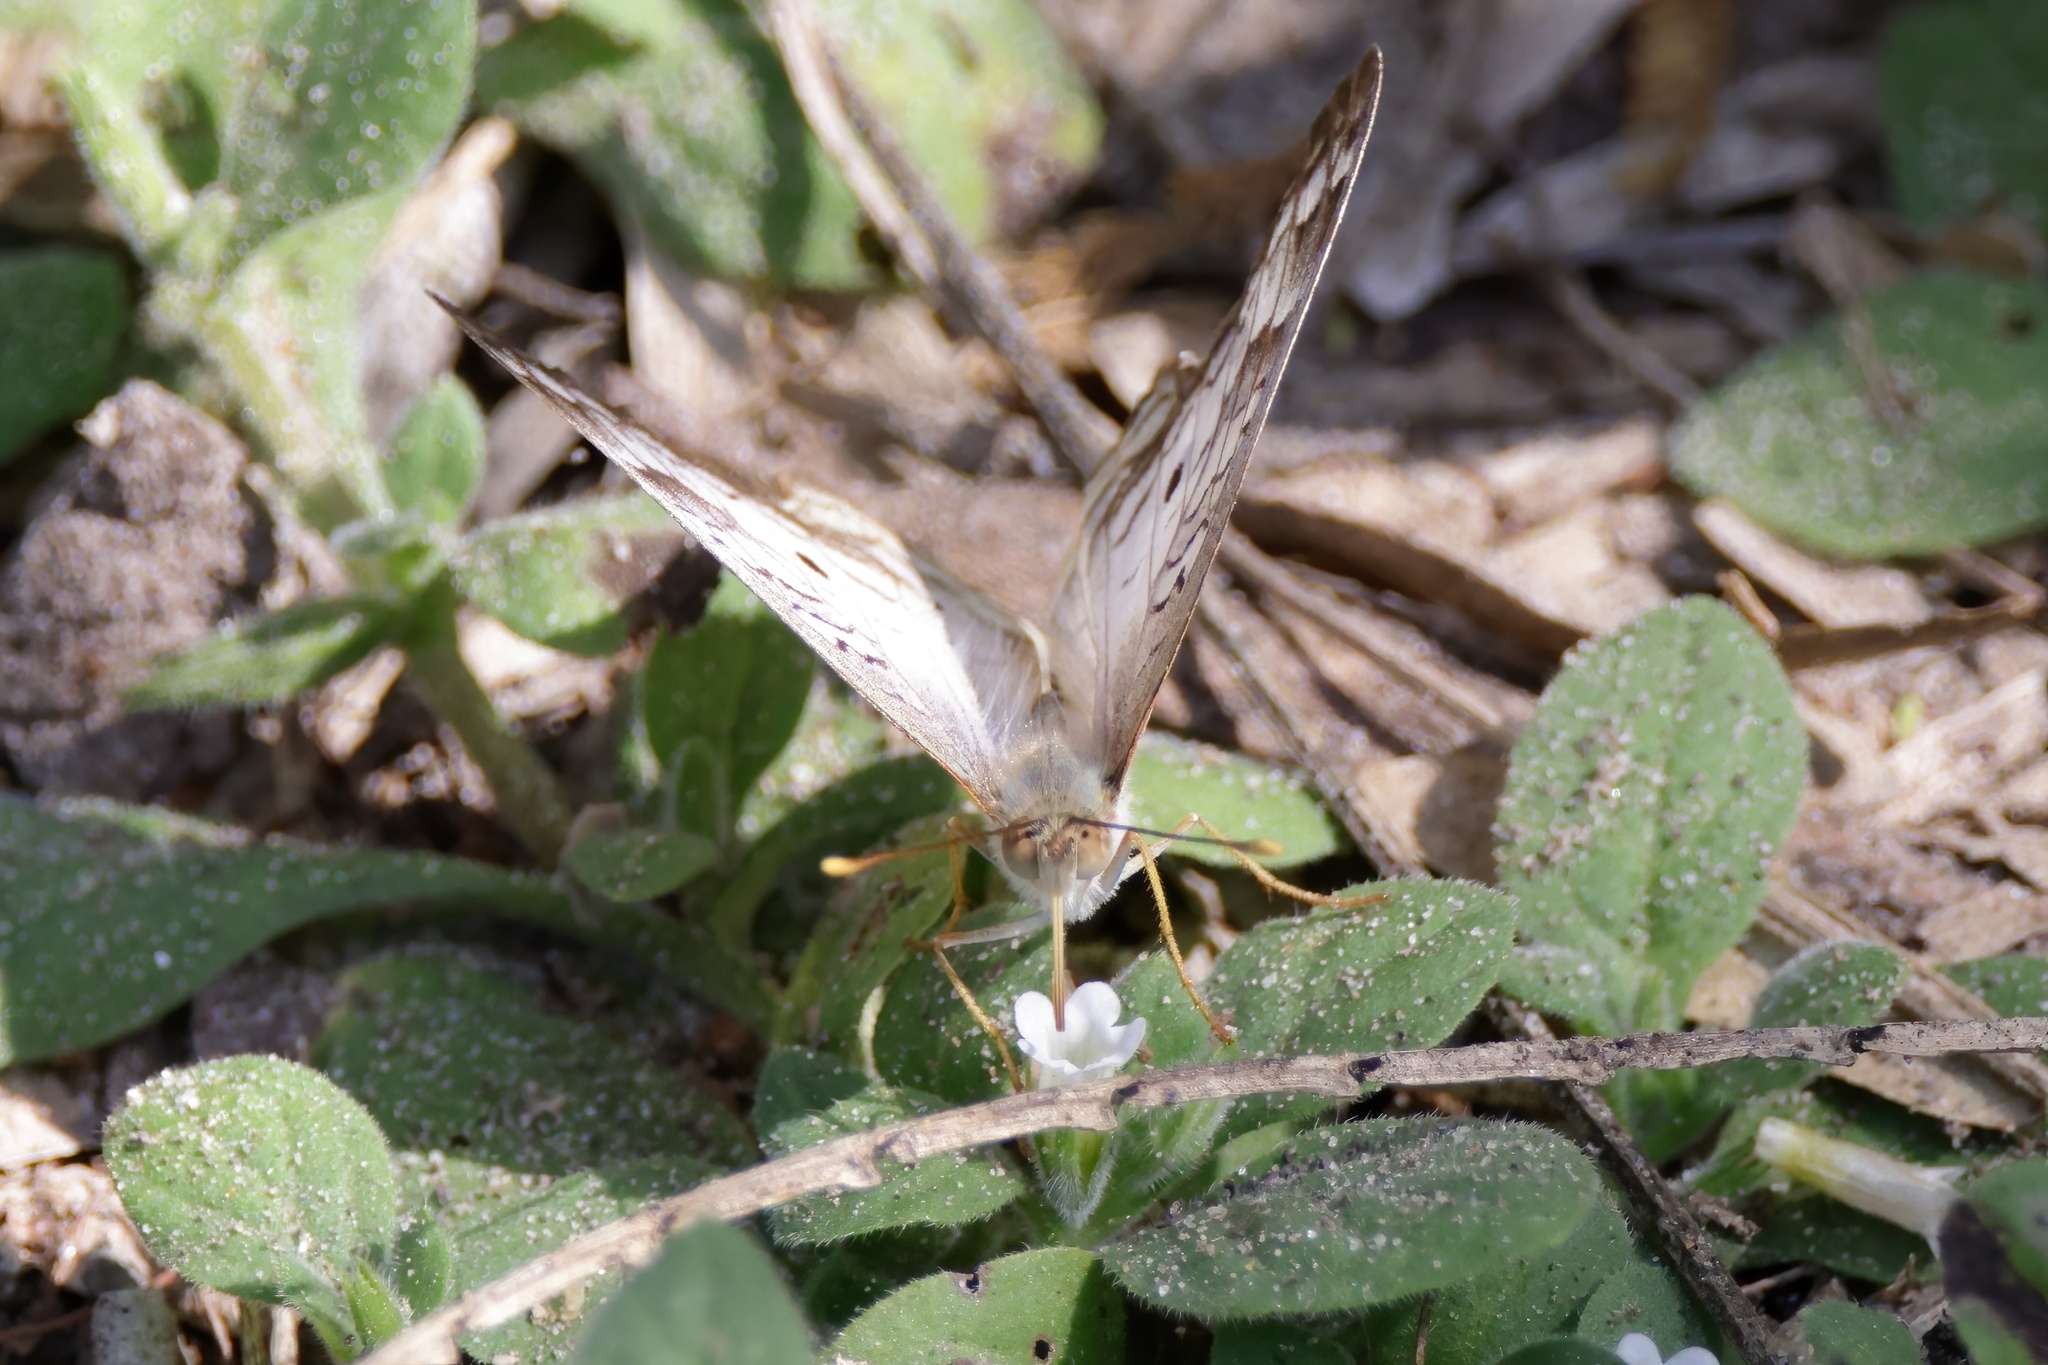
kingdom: Animalia
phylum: Arthropoda
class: Insecta
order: Lepidoptera
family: Nymphalidae
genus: Anartia
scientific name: Anartia jatrophae
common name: White peacock
